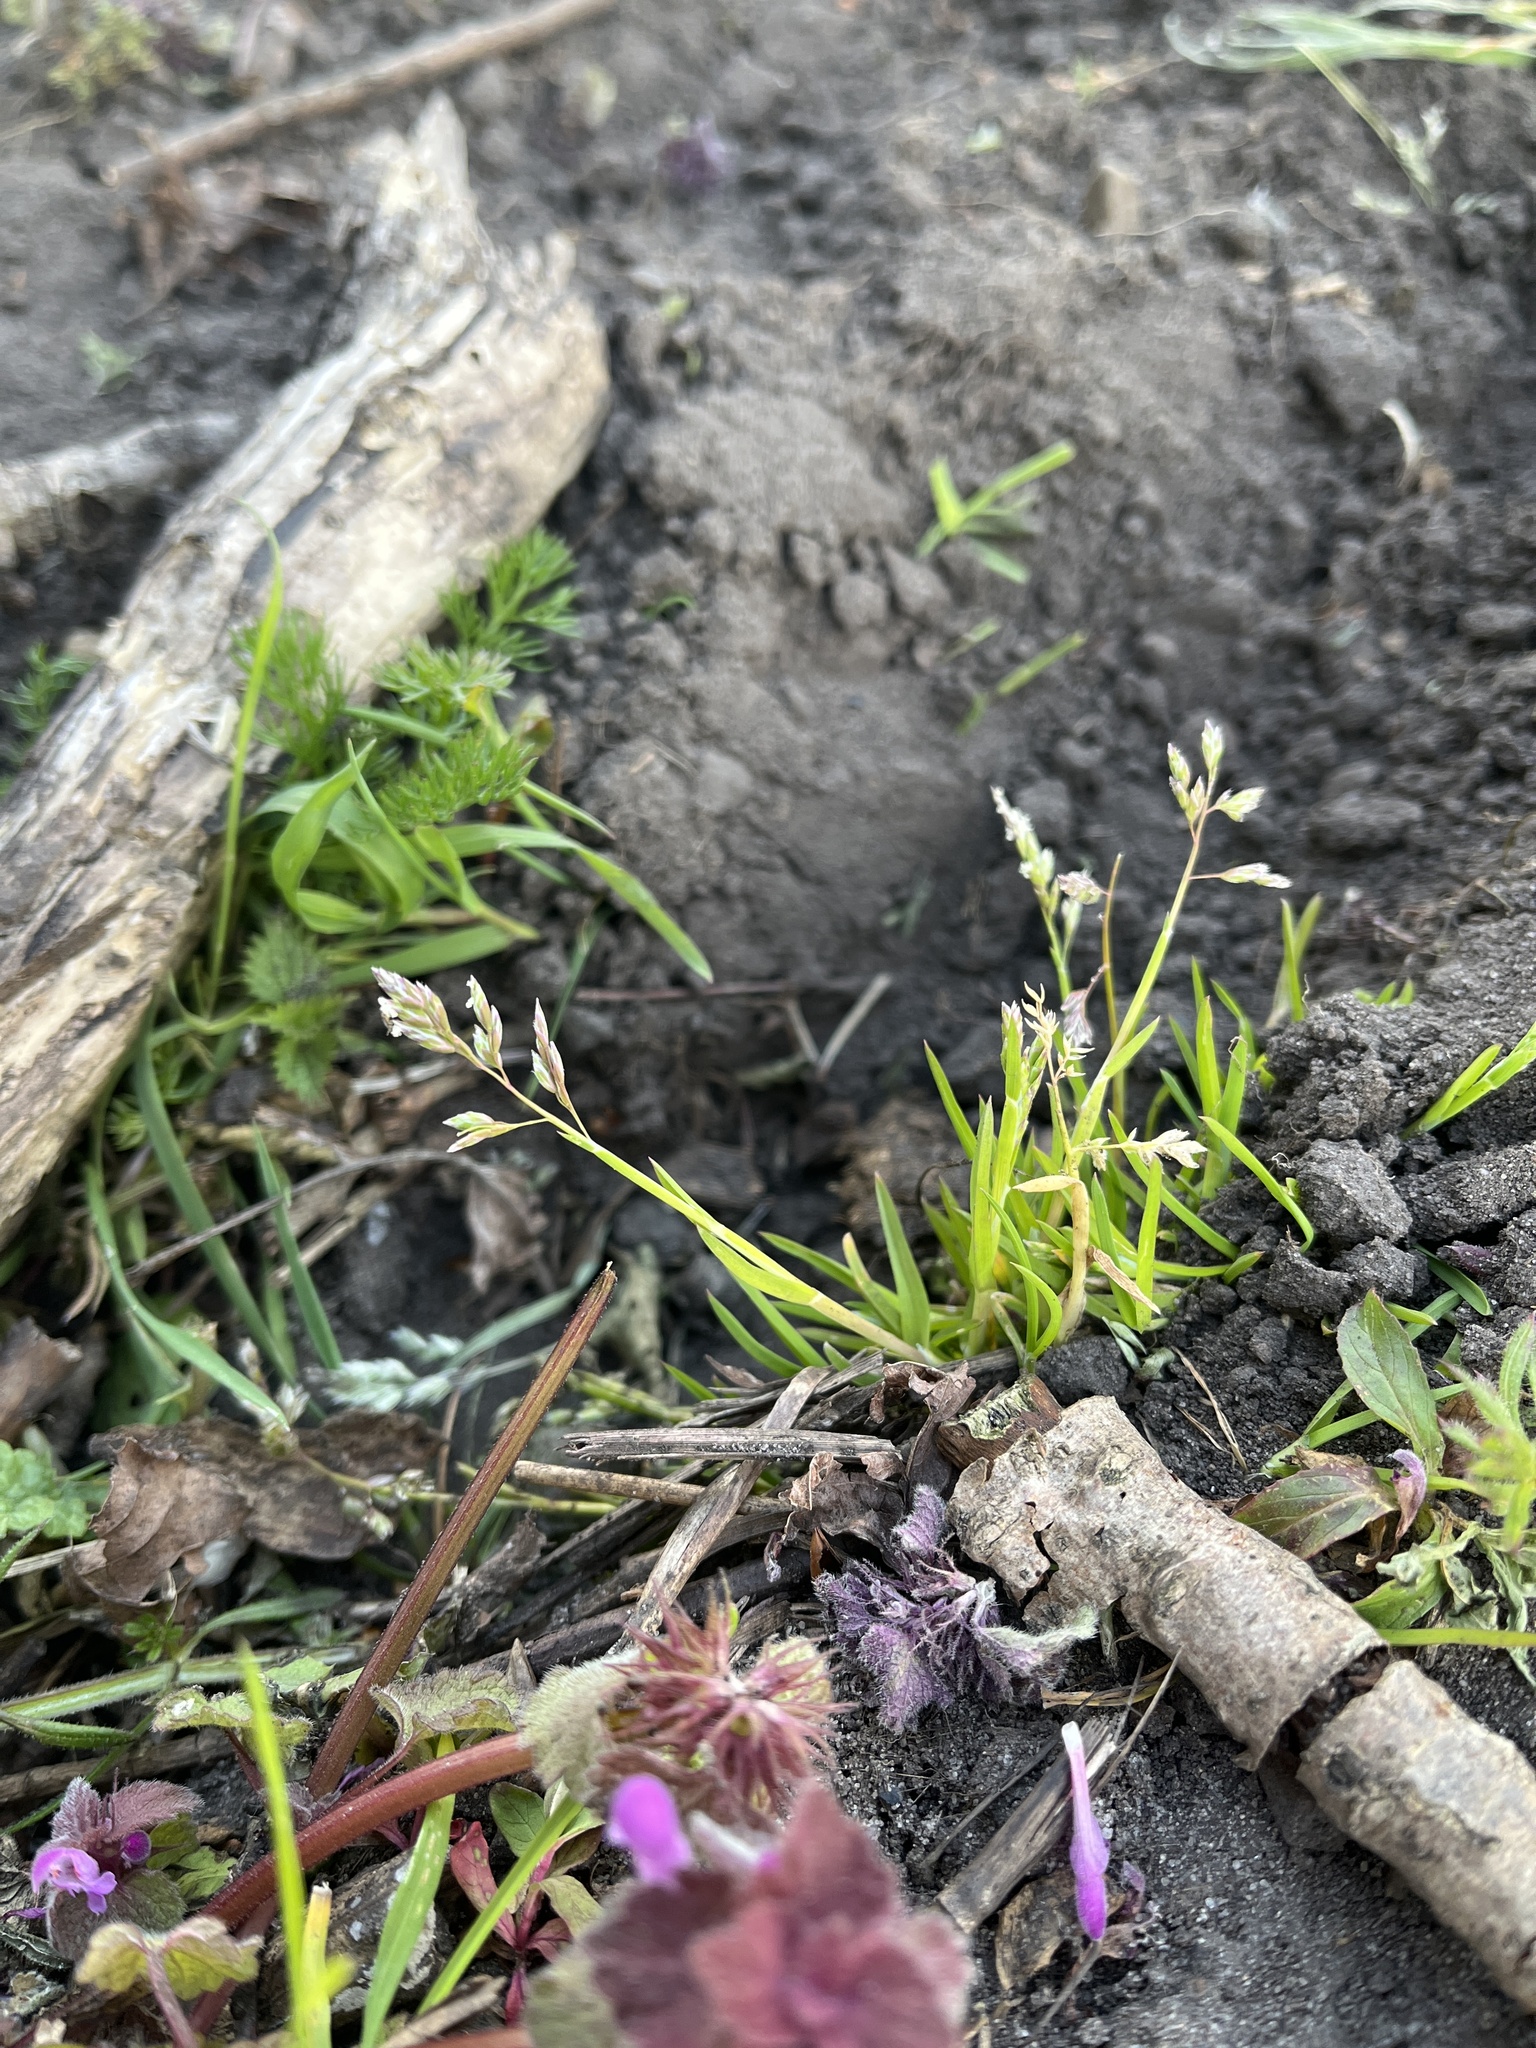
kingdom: Plantae
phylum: Tracheophyta
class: Liliopsida
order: Poales
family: Poaceae
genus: Poa
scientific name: Poa annua
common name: Annual bluegrass
